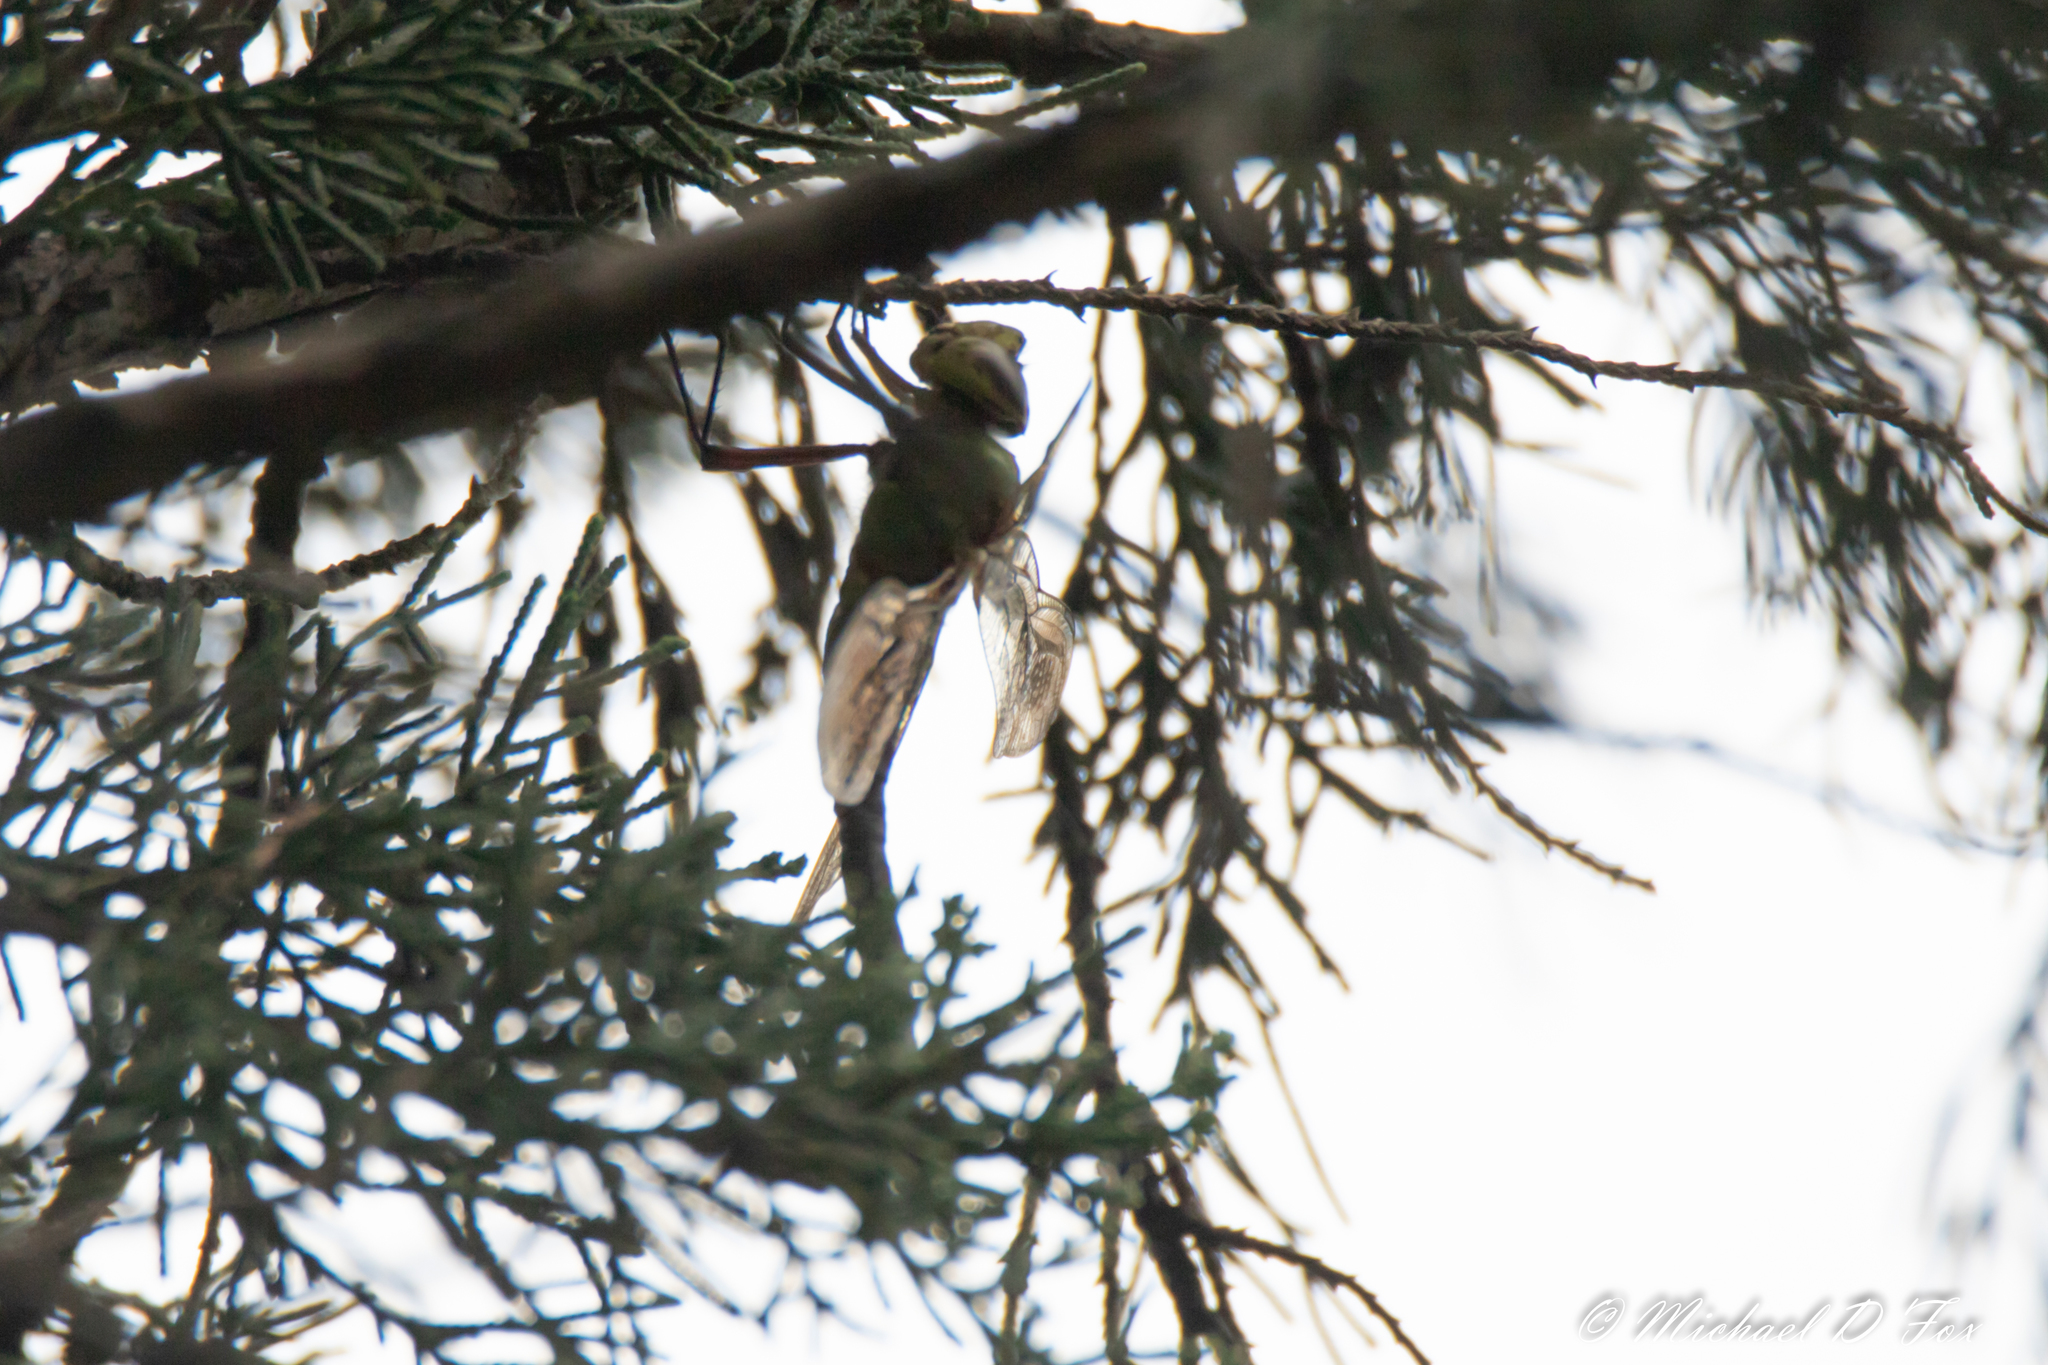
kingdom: Animalia
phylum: Arthropoda
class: Insecta
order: Odonata
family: Aeshnidae
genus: Anax
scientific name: Anax junius
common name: Common green darner
